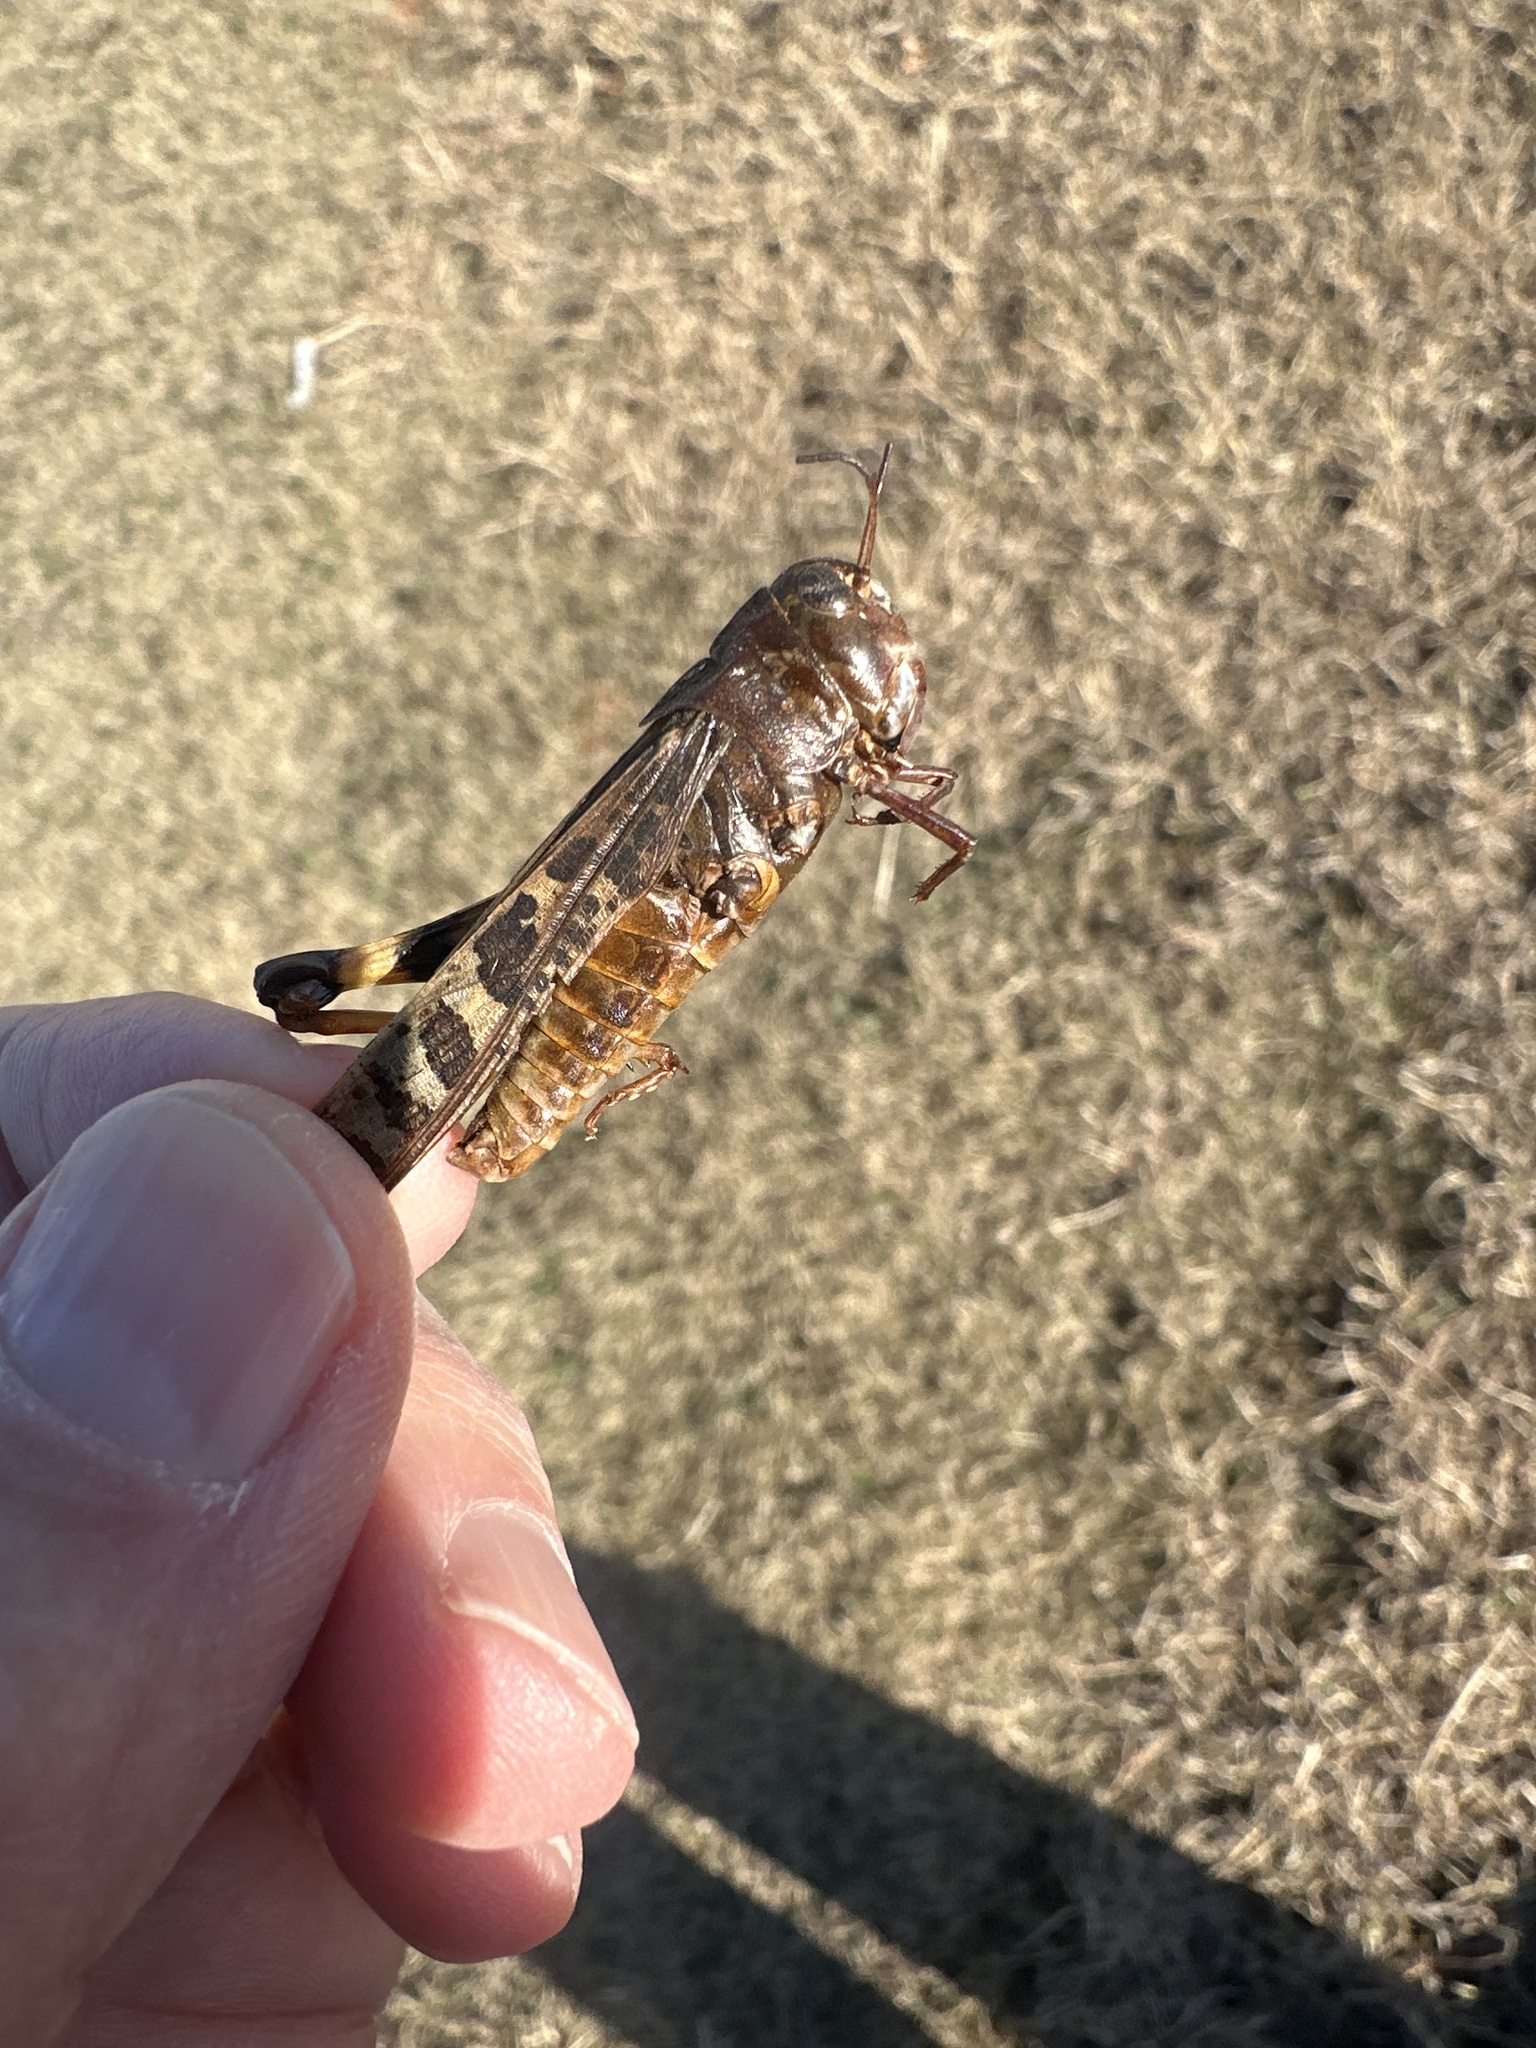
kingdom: Animalia
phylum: Arthropoda
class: Insecta
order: Orthoptera
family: Acrididae
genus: Hippiscus
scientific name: Hippiscus ocelote
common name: Wrinkled grasshopper
